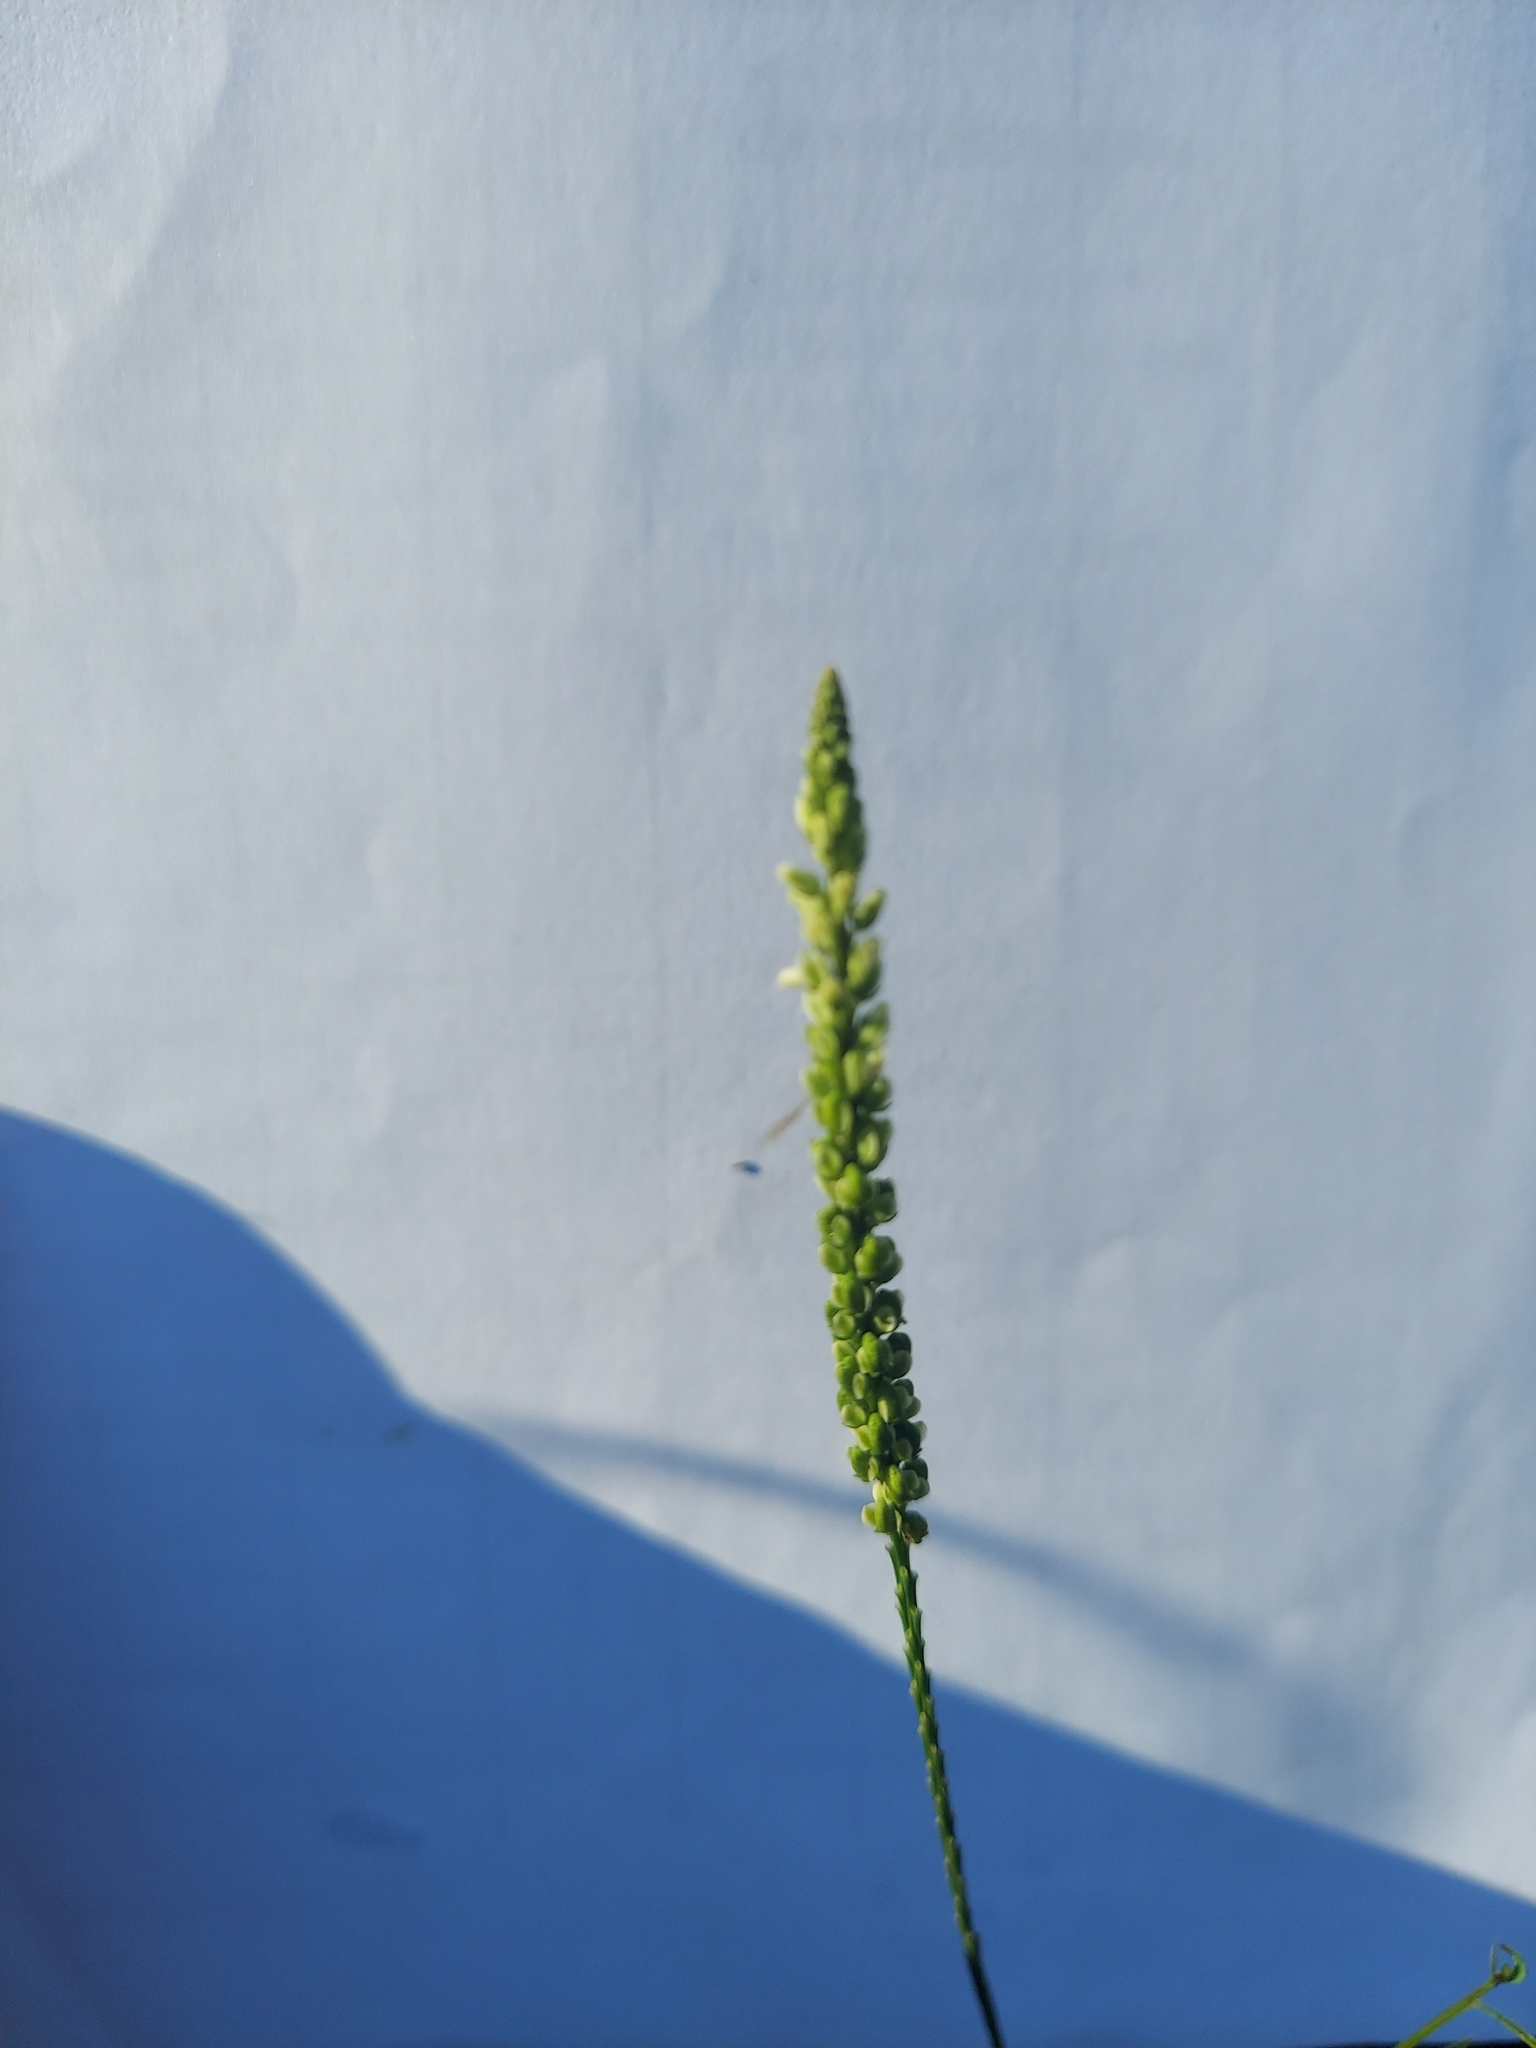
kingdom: Plantae
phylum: Tracheophyta
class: Magnoliopsida
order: Fabales
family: Polygalaceae
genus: Polygala
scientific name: Polygala leptostachys
